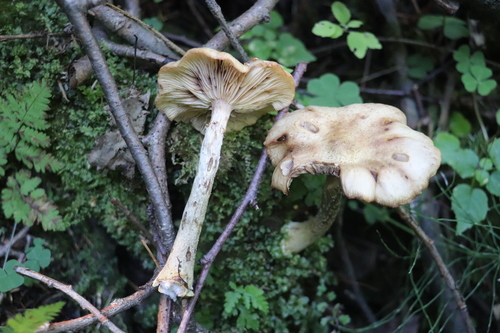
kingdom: Fungi
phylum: Basidiomycota
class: Agaricomycetes
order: Agaricales
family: Physalacriaceae
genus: Armillaria
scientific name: Armillaria cepistipes
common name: Mullet honey fungus
